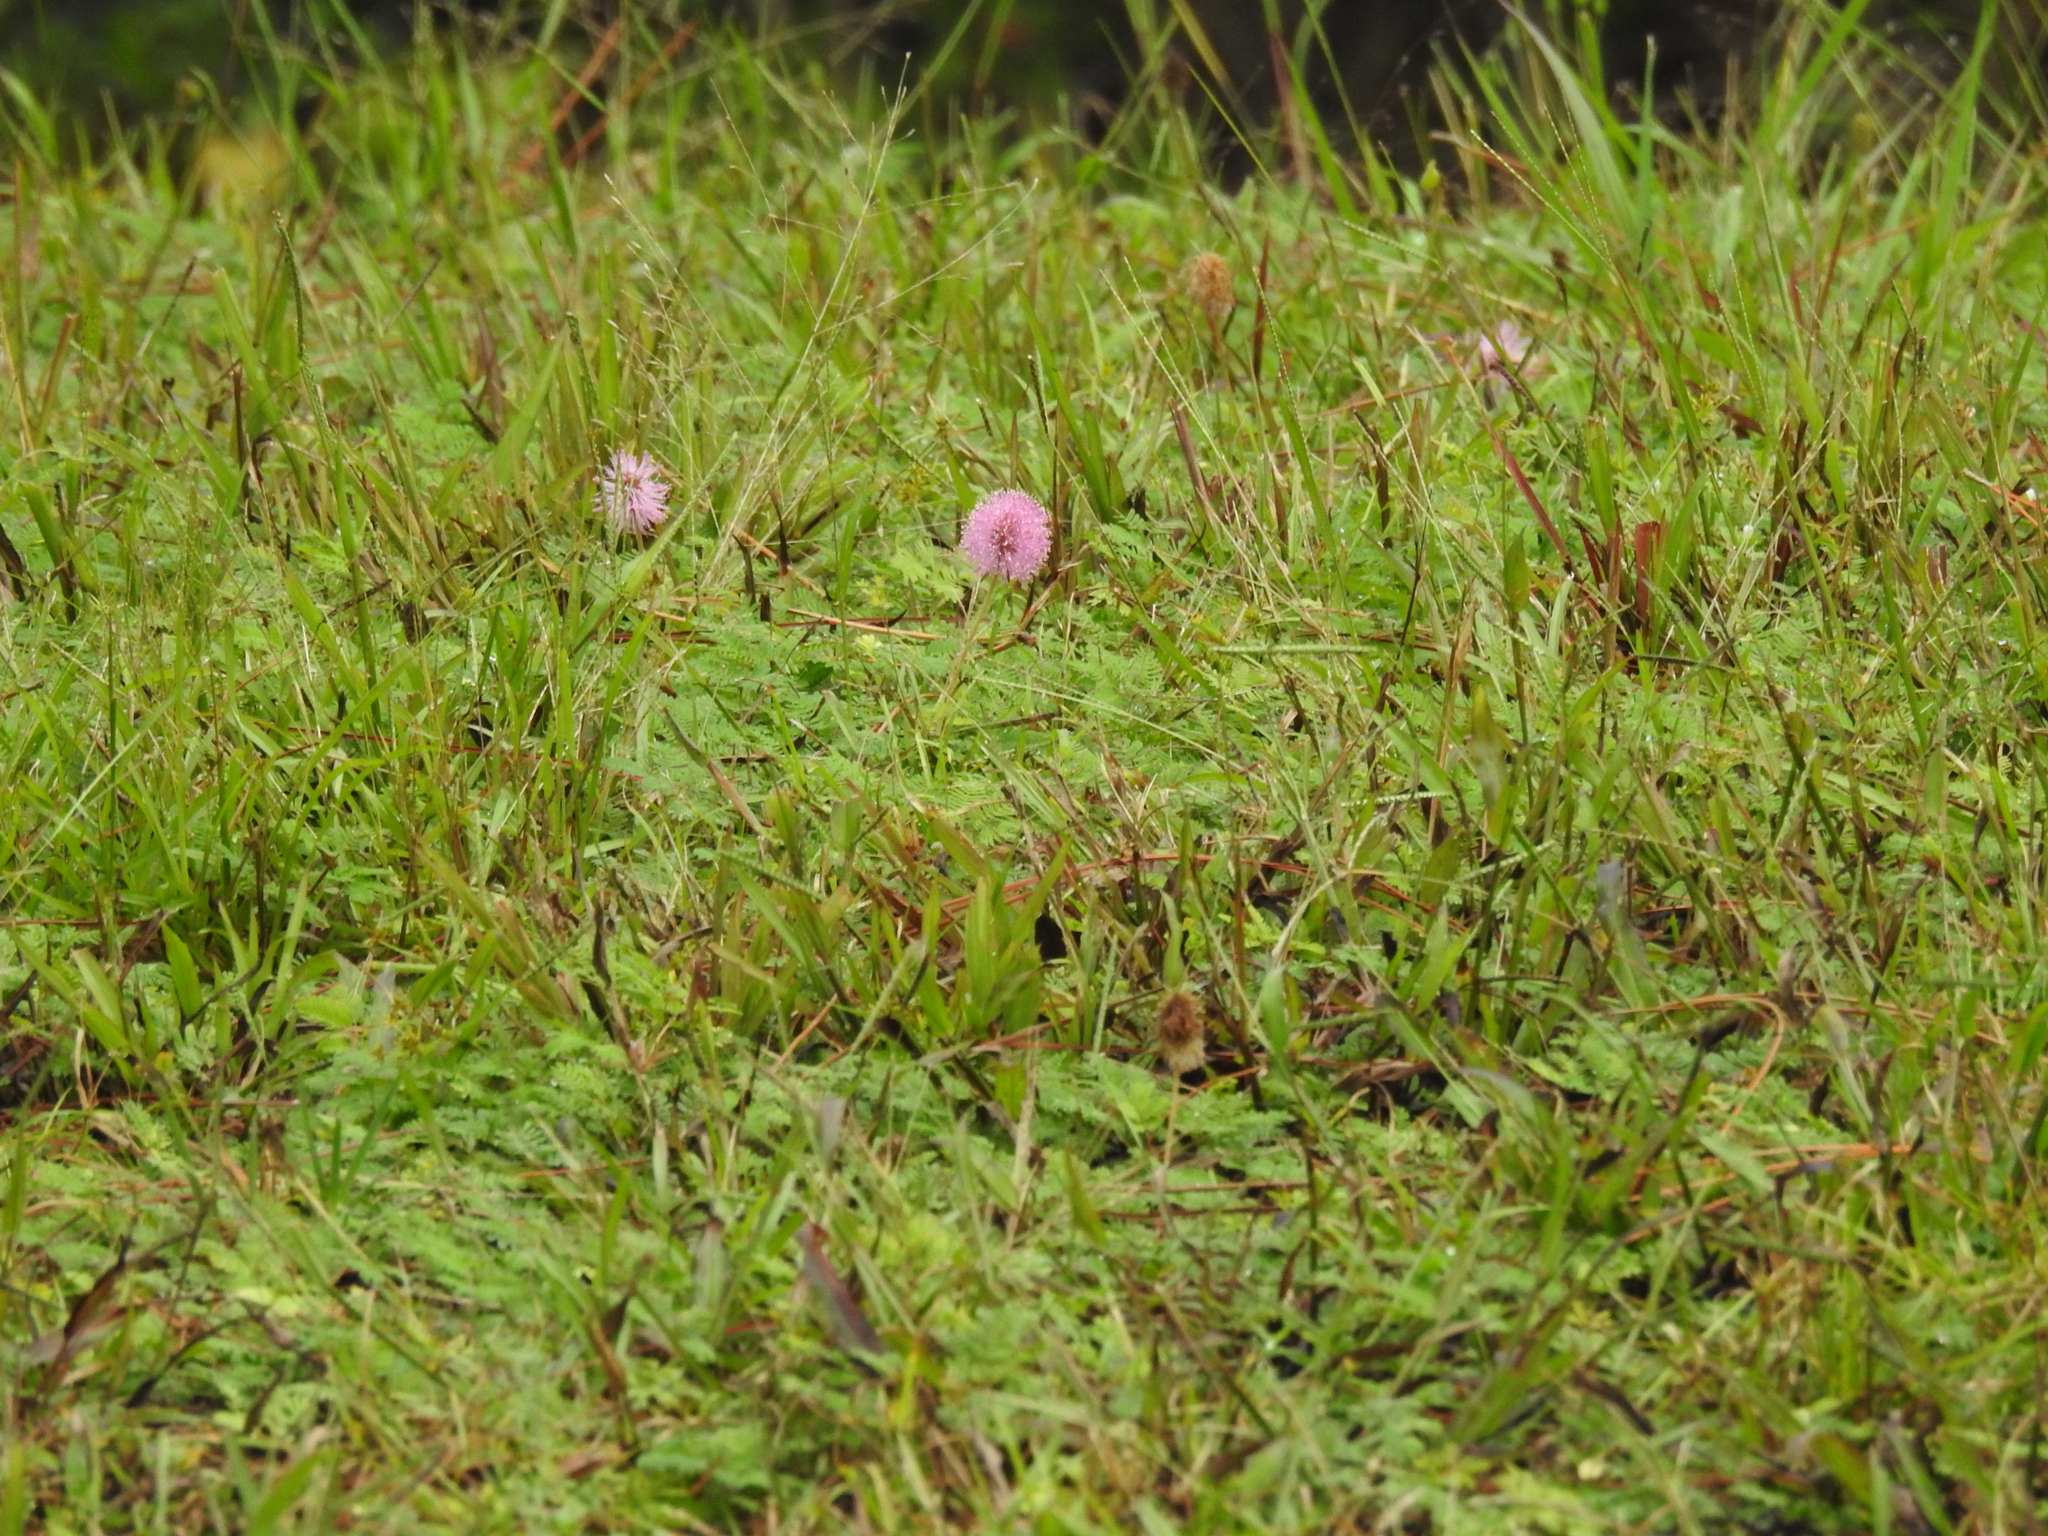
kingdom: Plantae
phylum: Tracheophyta
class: Magnoliopsida
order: Fabales
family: Fabaceae
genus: Mimosa
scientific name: Mimosa strigillosa
